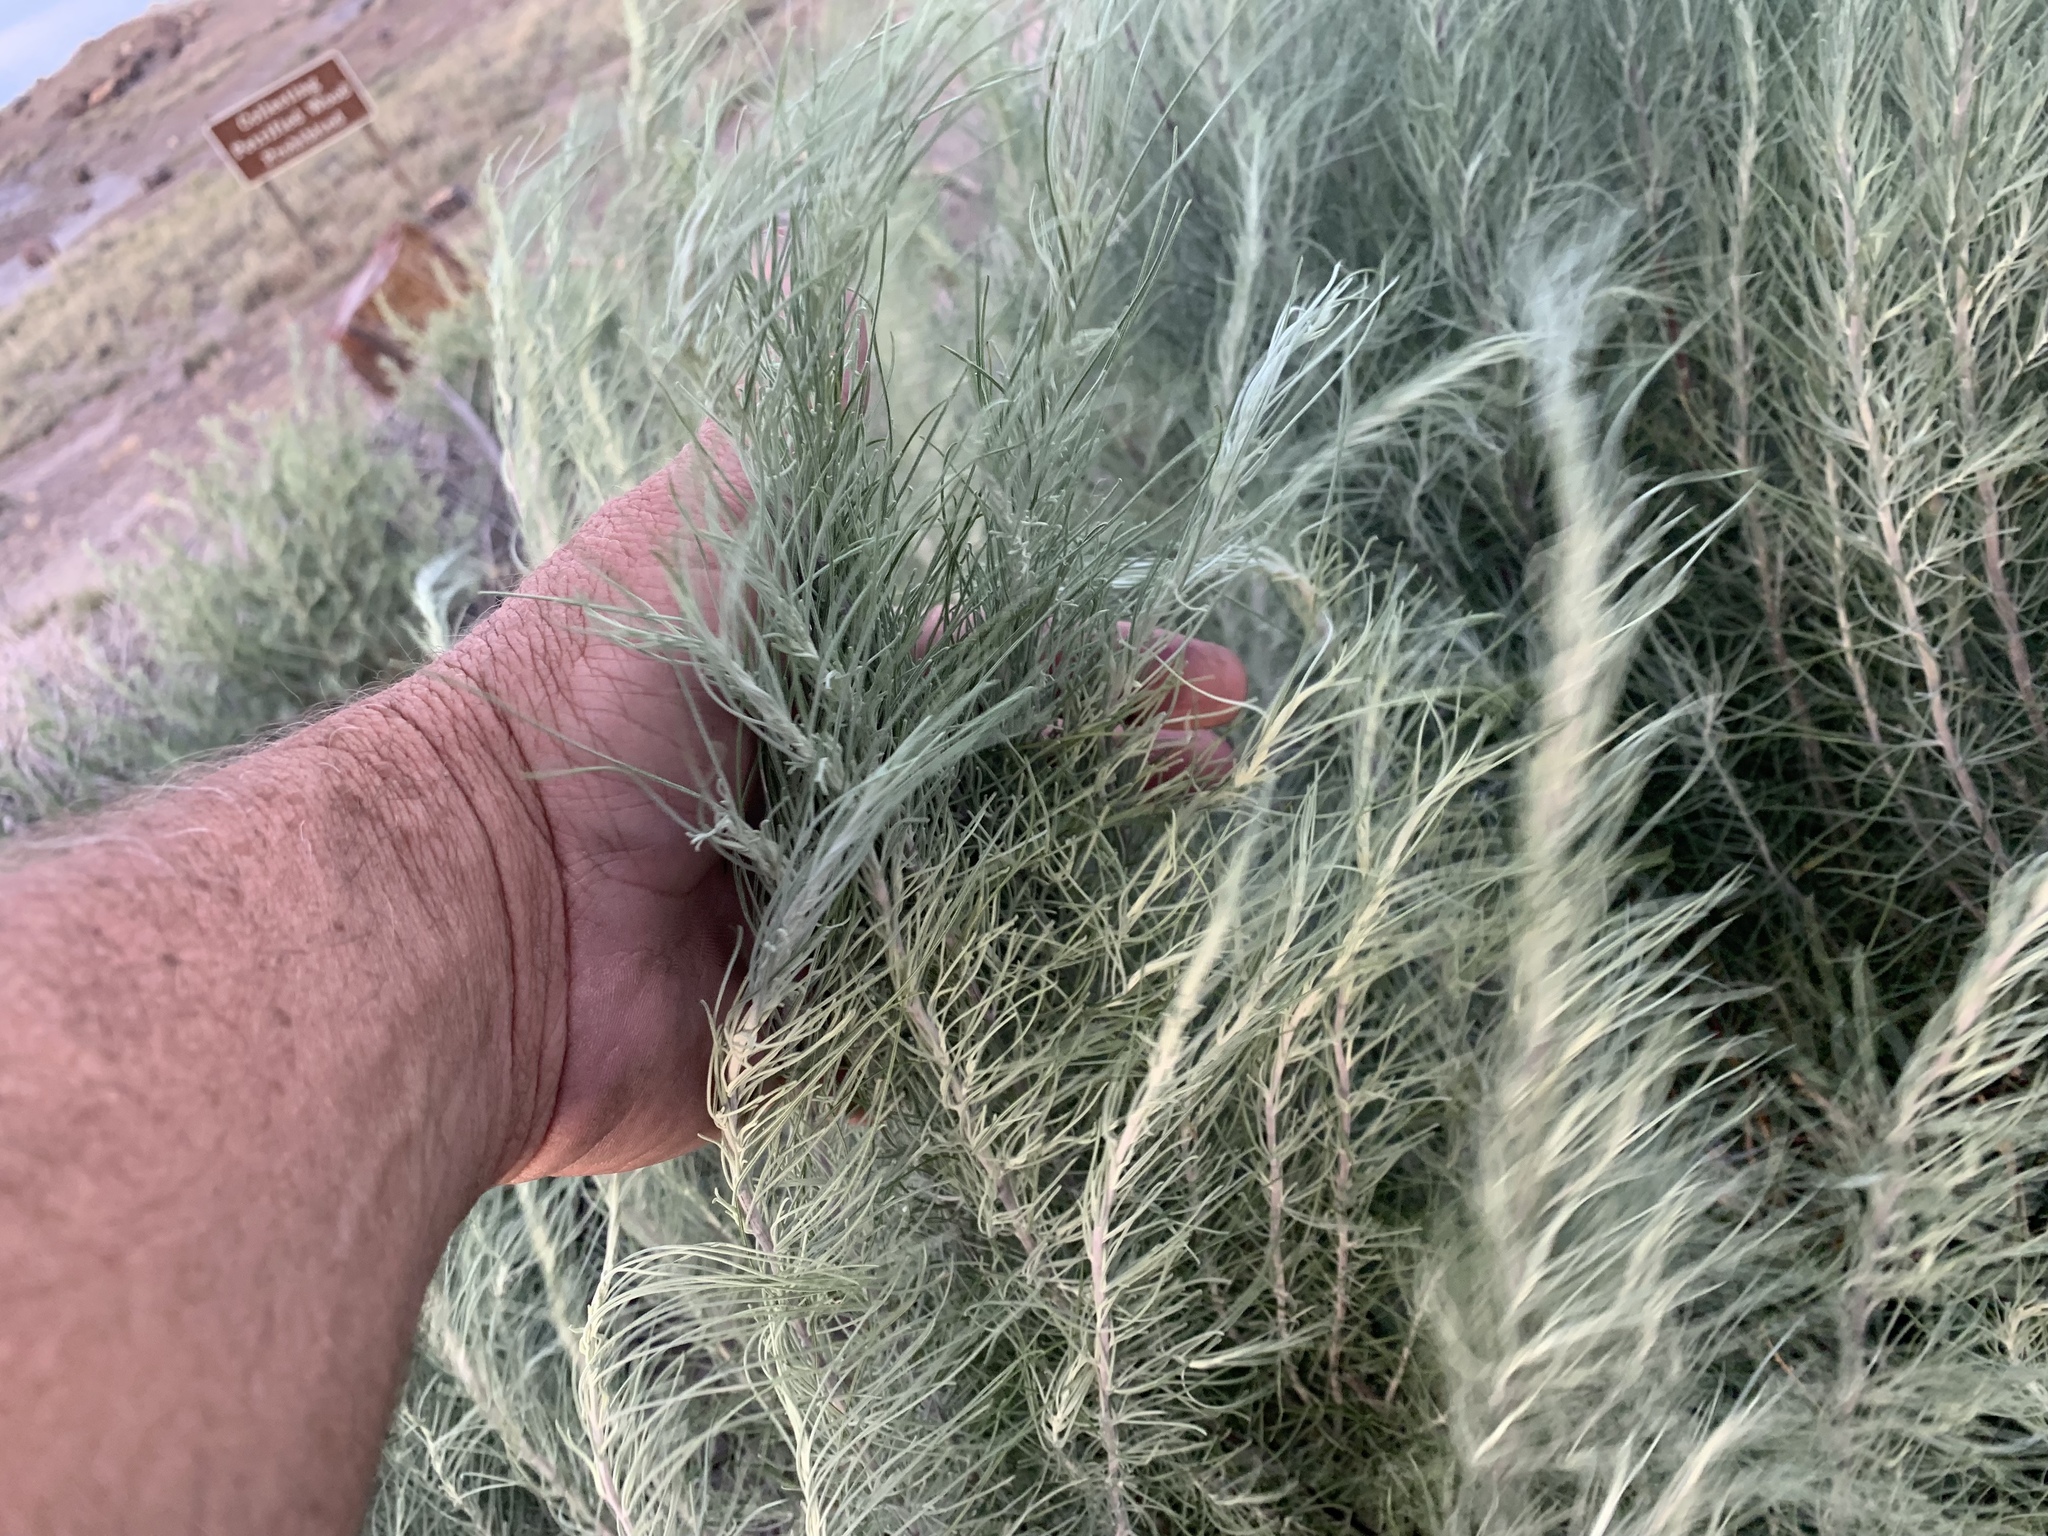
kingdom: Plantae
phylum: Tracheophyta
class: Magnoliopsida
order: Asterales
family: Asteraceae
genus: Artemisia
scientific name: Artemisia filifolia
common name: Sand-sage
